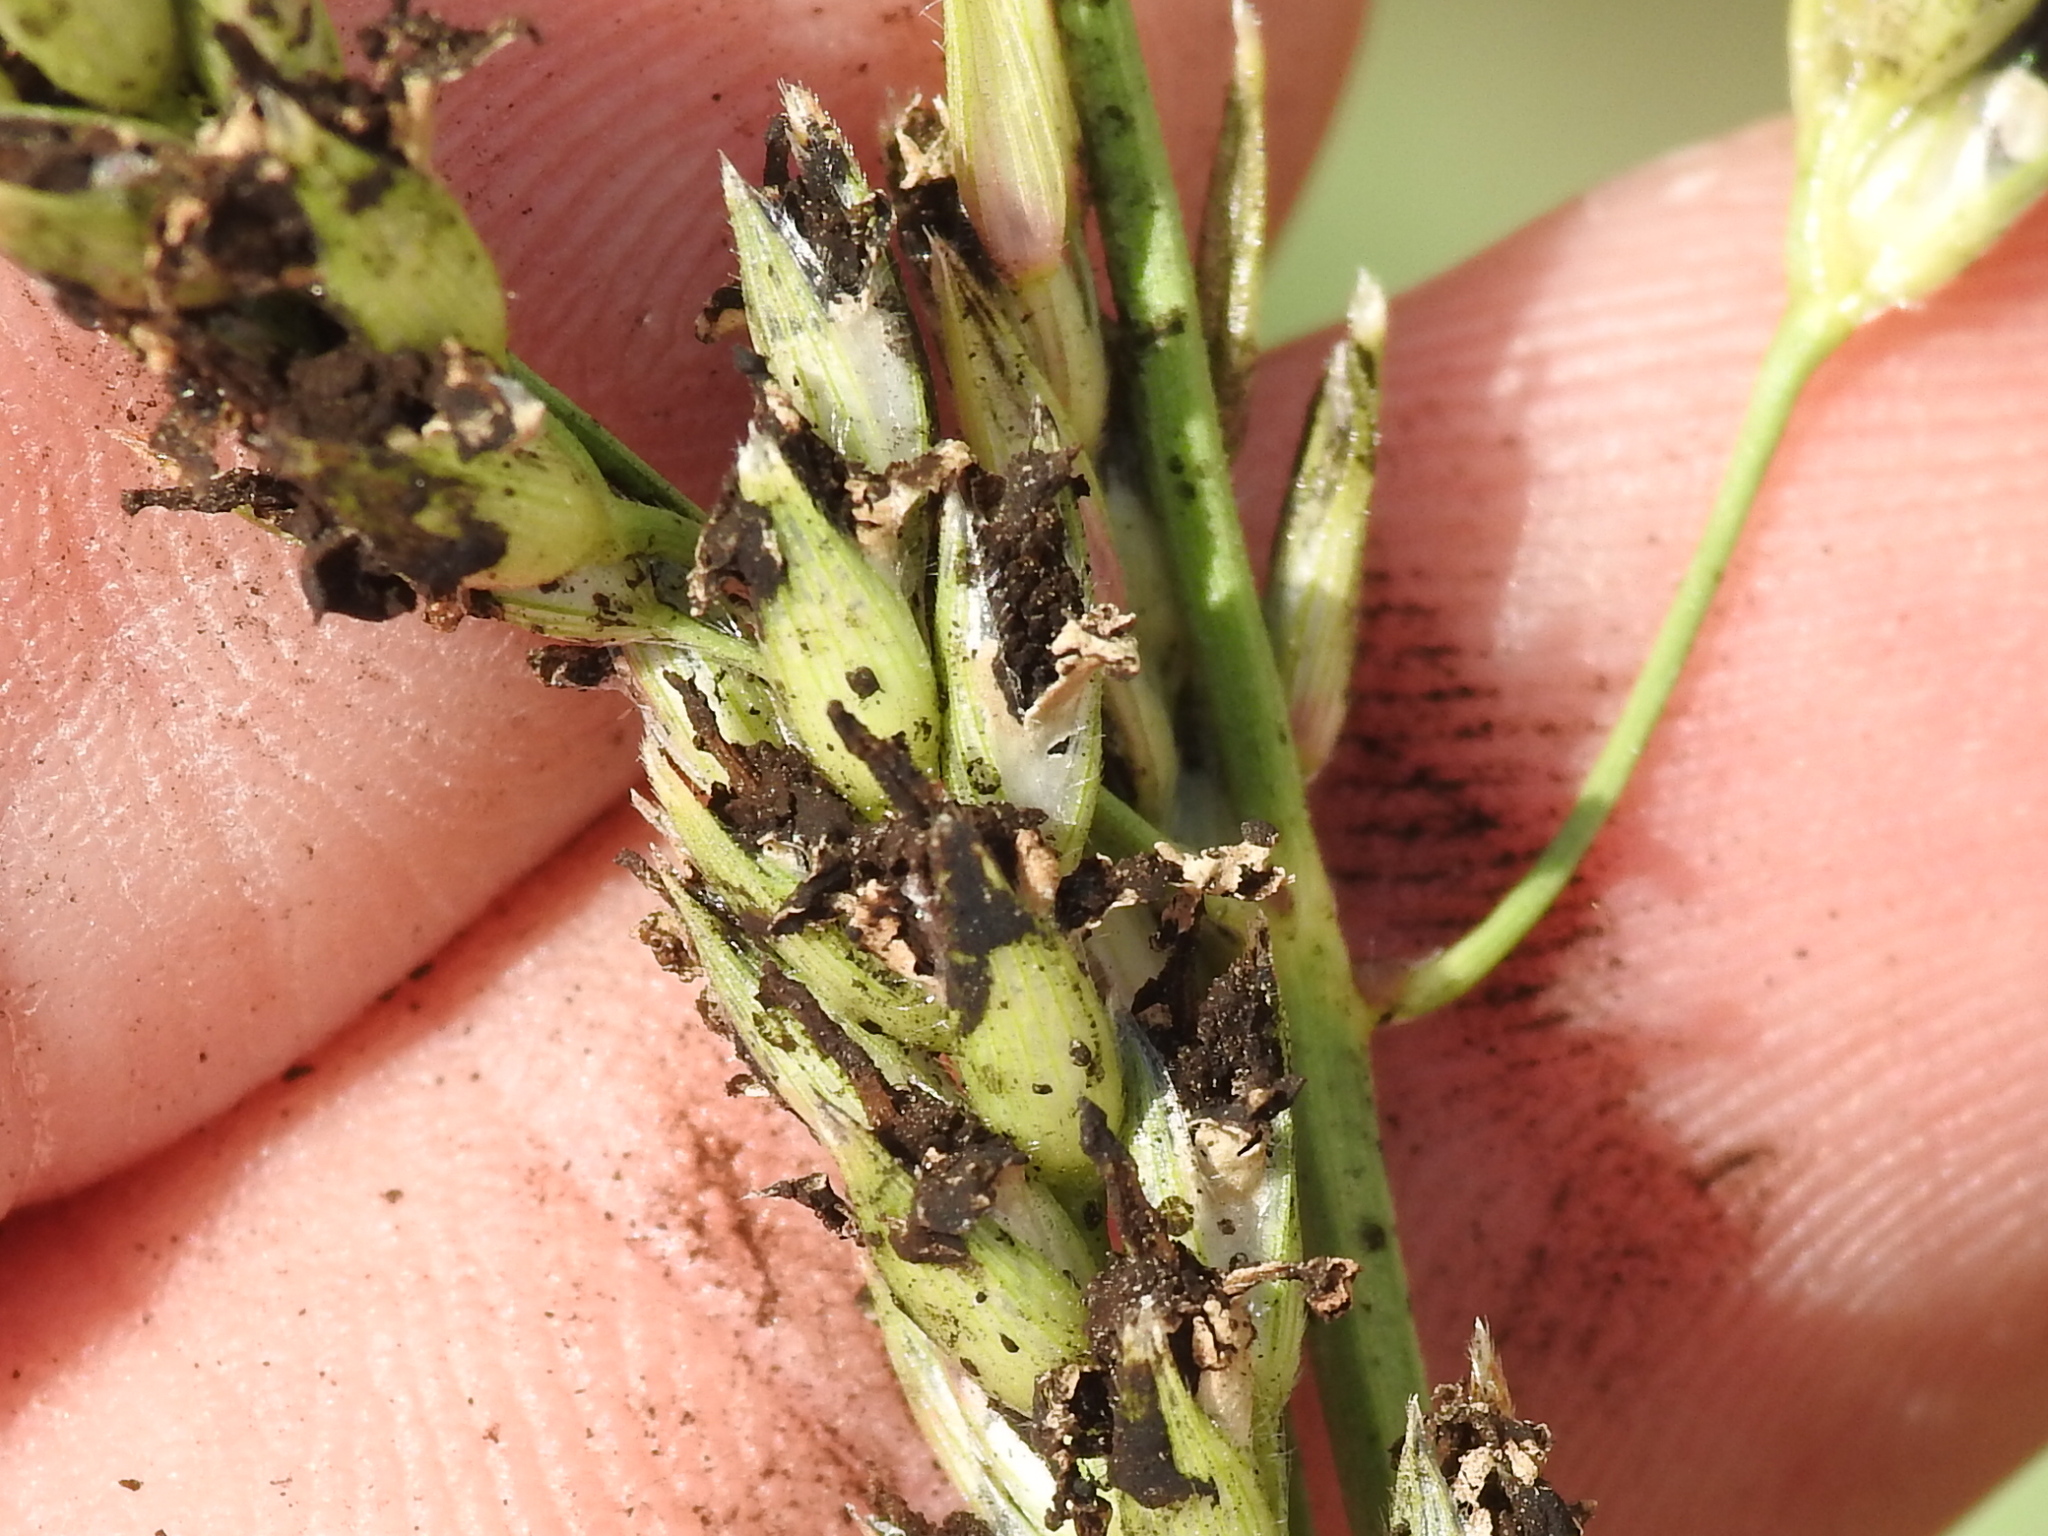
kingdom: Fungi
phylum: Basidiomycota
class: Ustilaginomycetes
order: Ustilaginales
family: Ustilaginaceae
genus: Sporisorium
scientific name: Sporisorium cruentum
